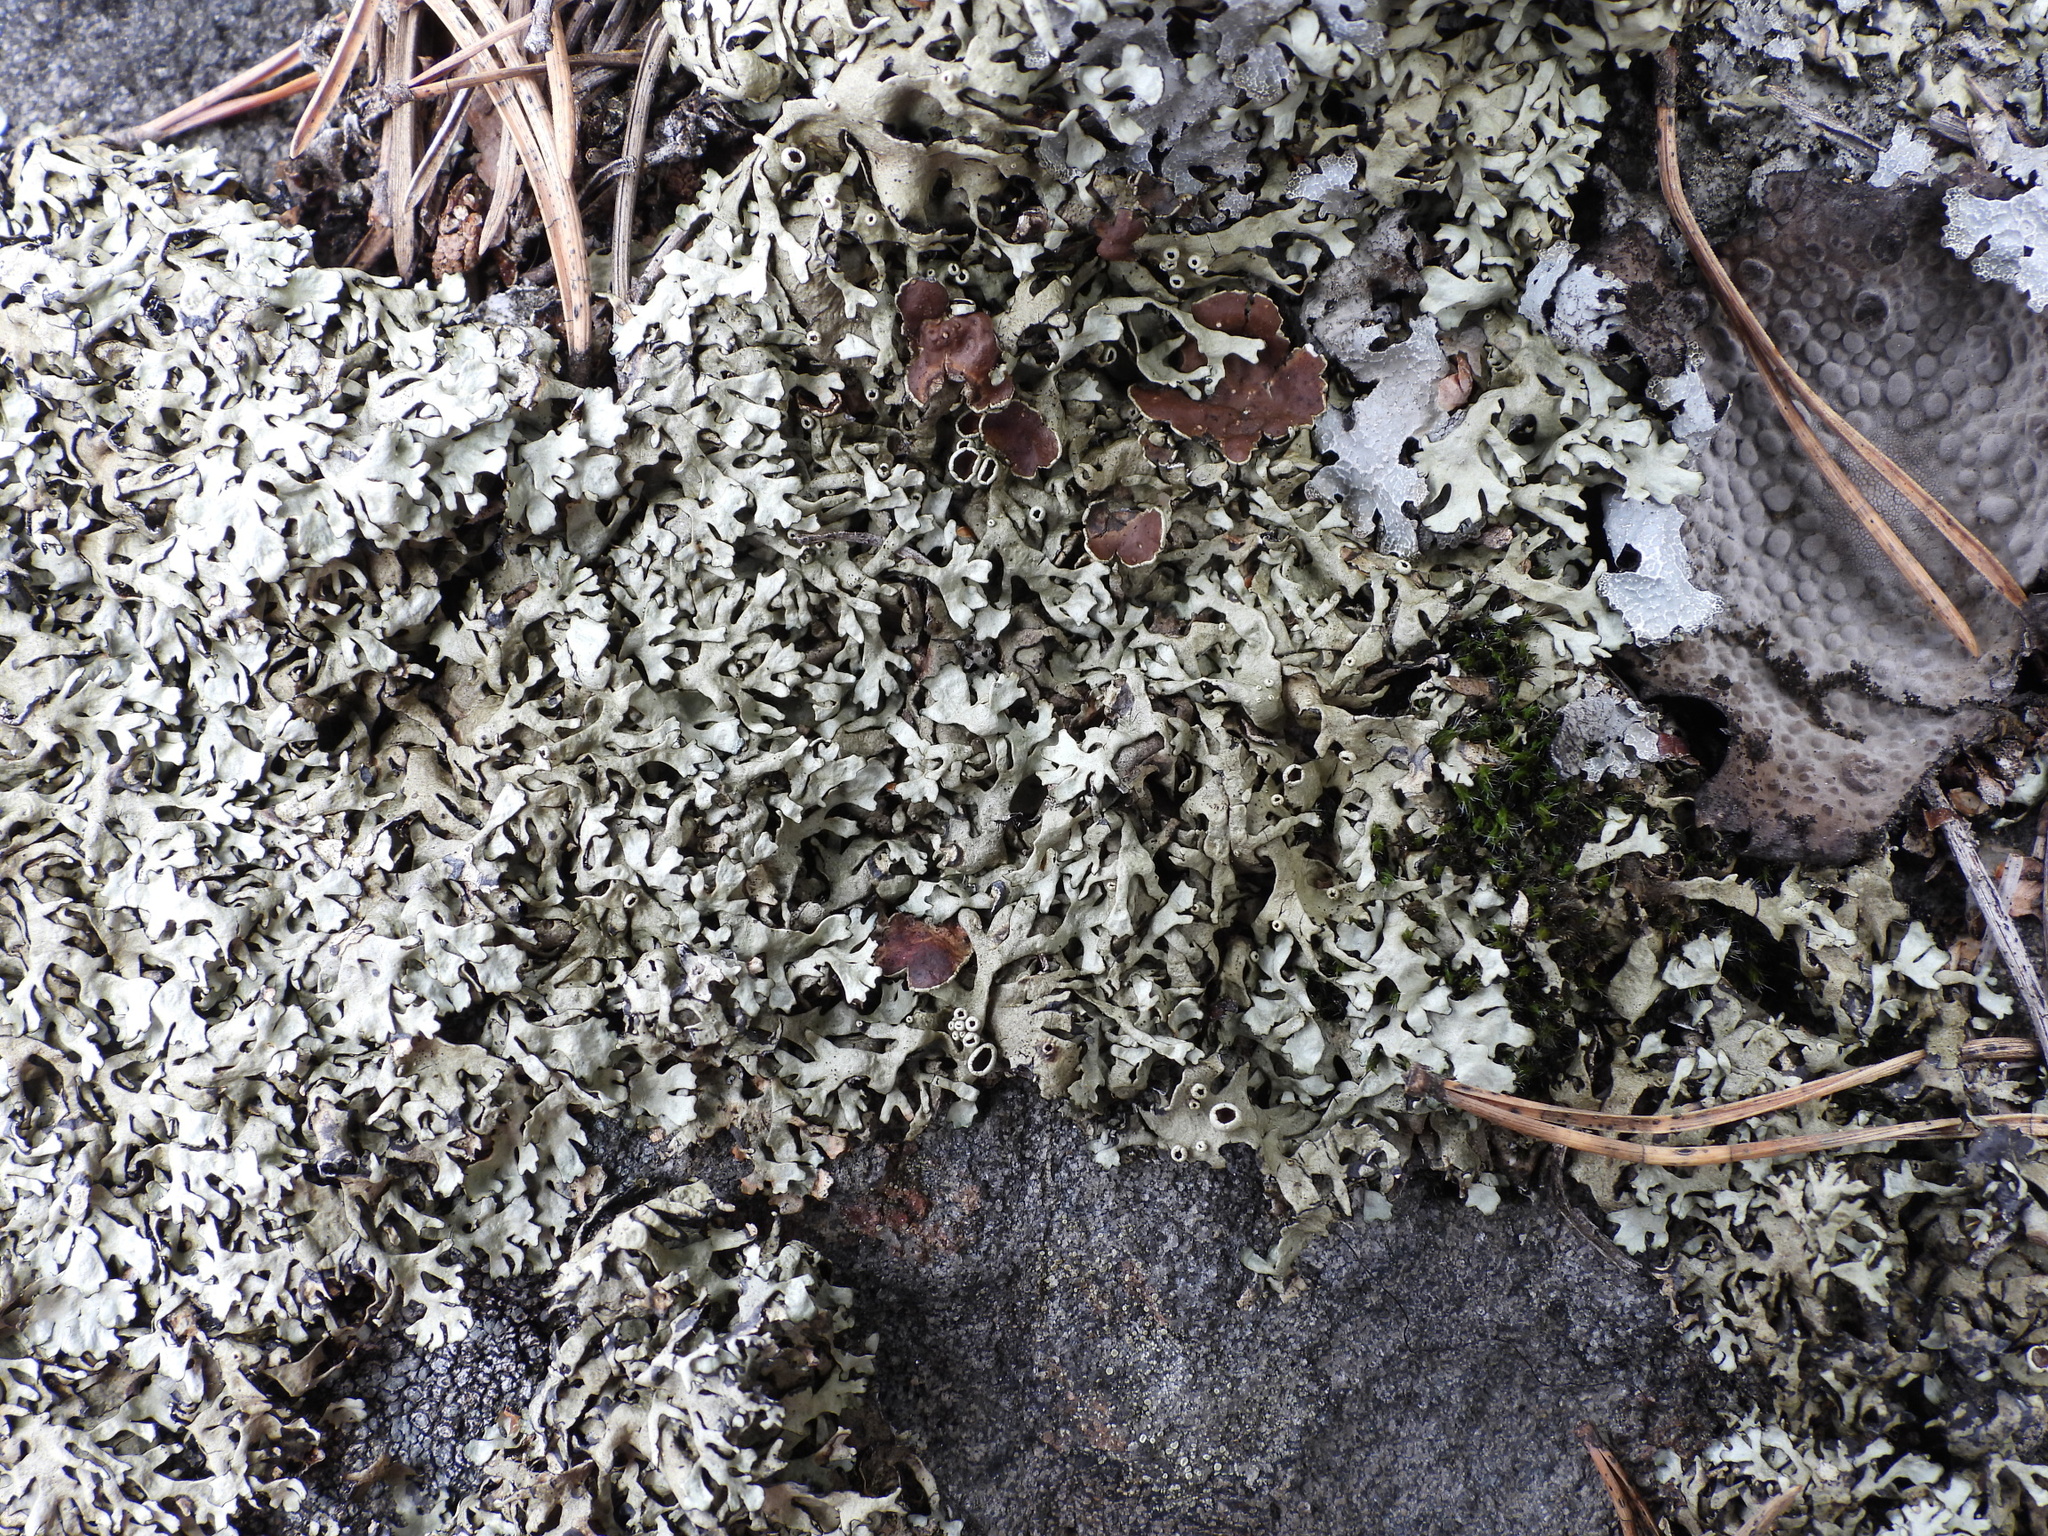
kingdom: Fungi
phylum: Ascomycota
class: Lecanoromycetes
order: Lecanorales
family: Parmeliaceae
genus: Xanthoparmelia
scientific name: Xanthoparmelia stenophylla
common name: Shingled rock shield
